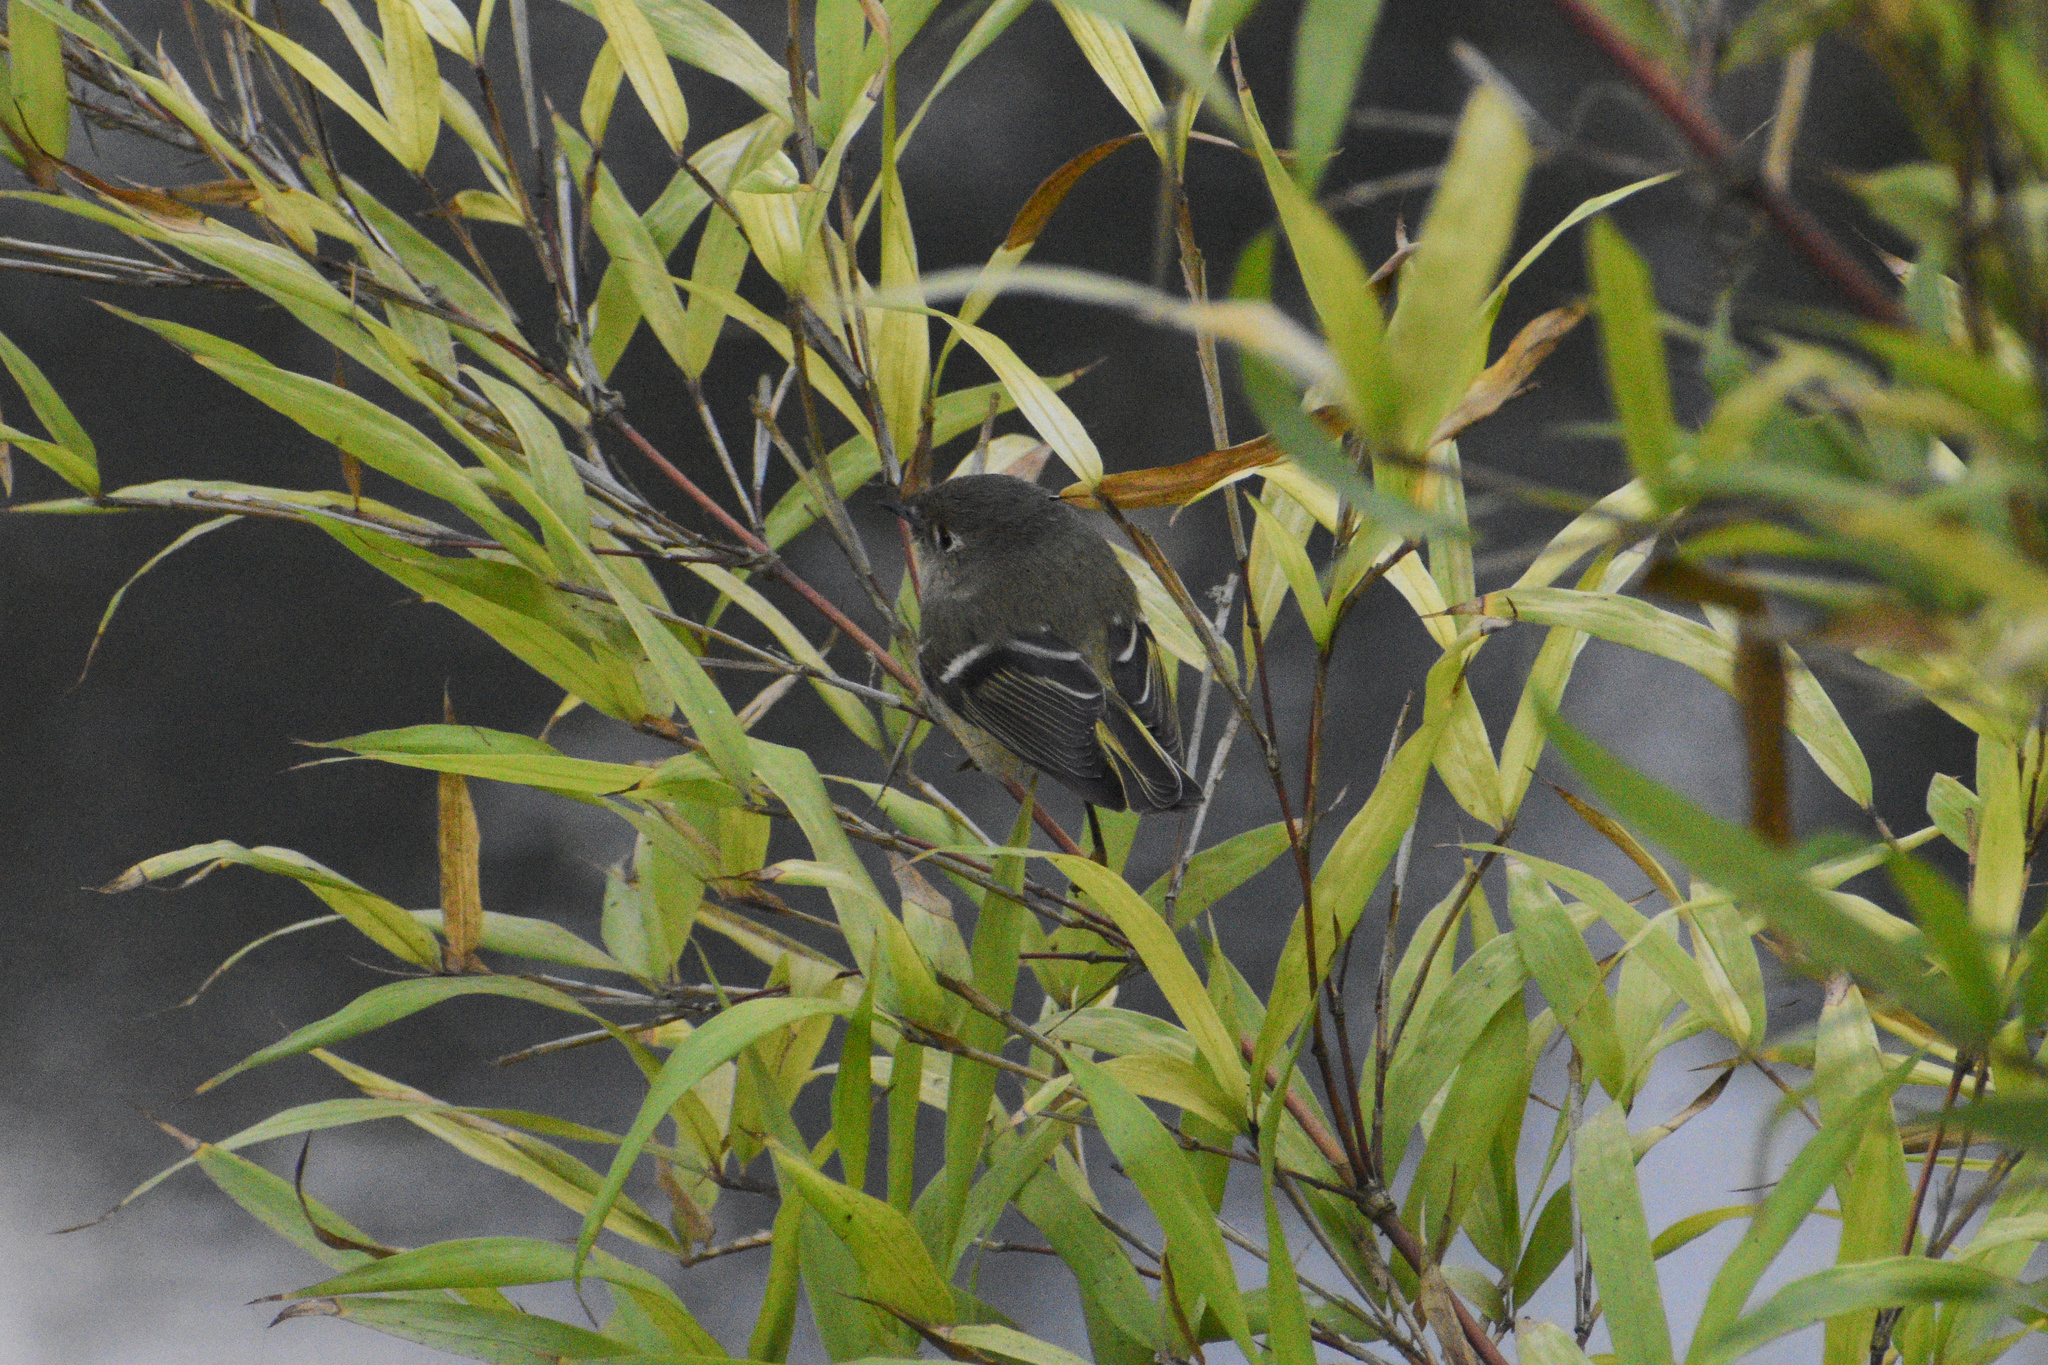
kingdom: Animalia
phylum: Chordata
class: Aves
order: Passeriformes
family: Regulidae
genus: Regulus
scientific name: Regulus calendula
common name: Ruby-crowned kinglet
